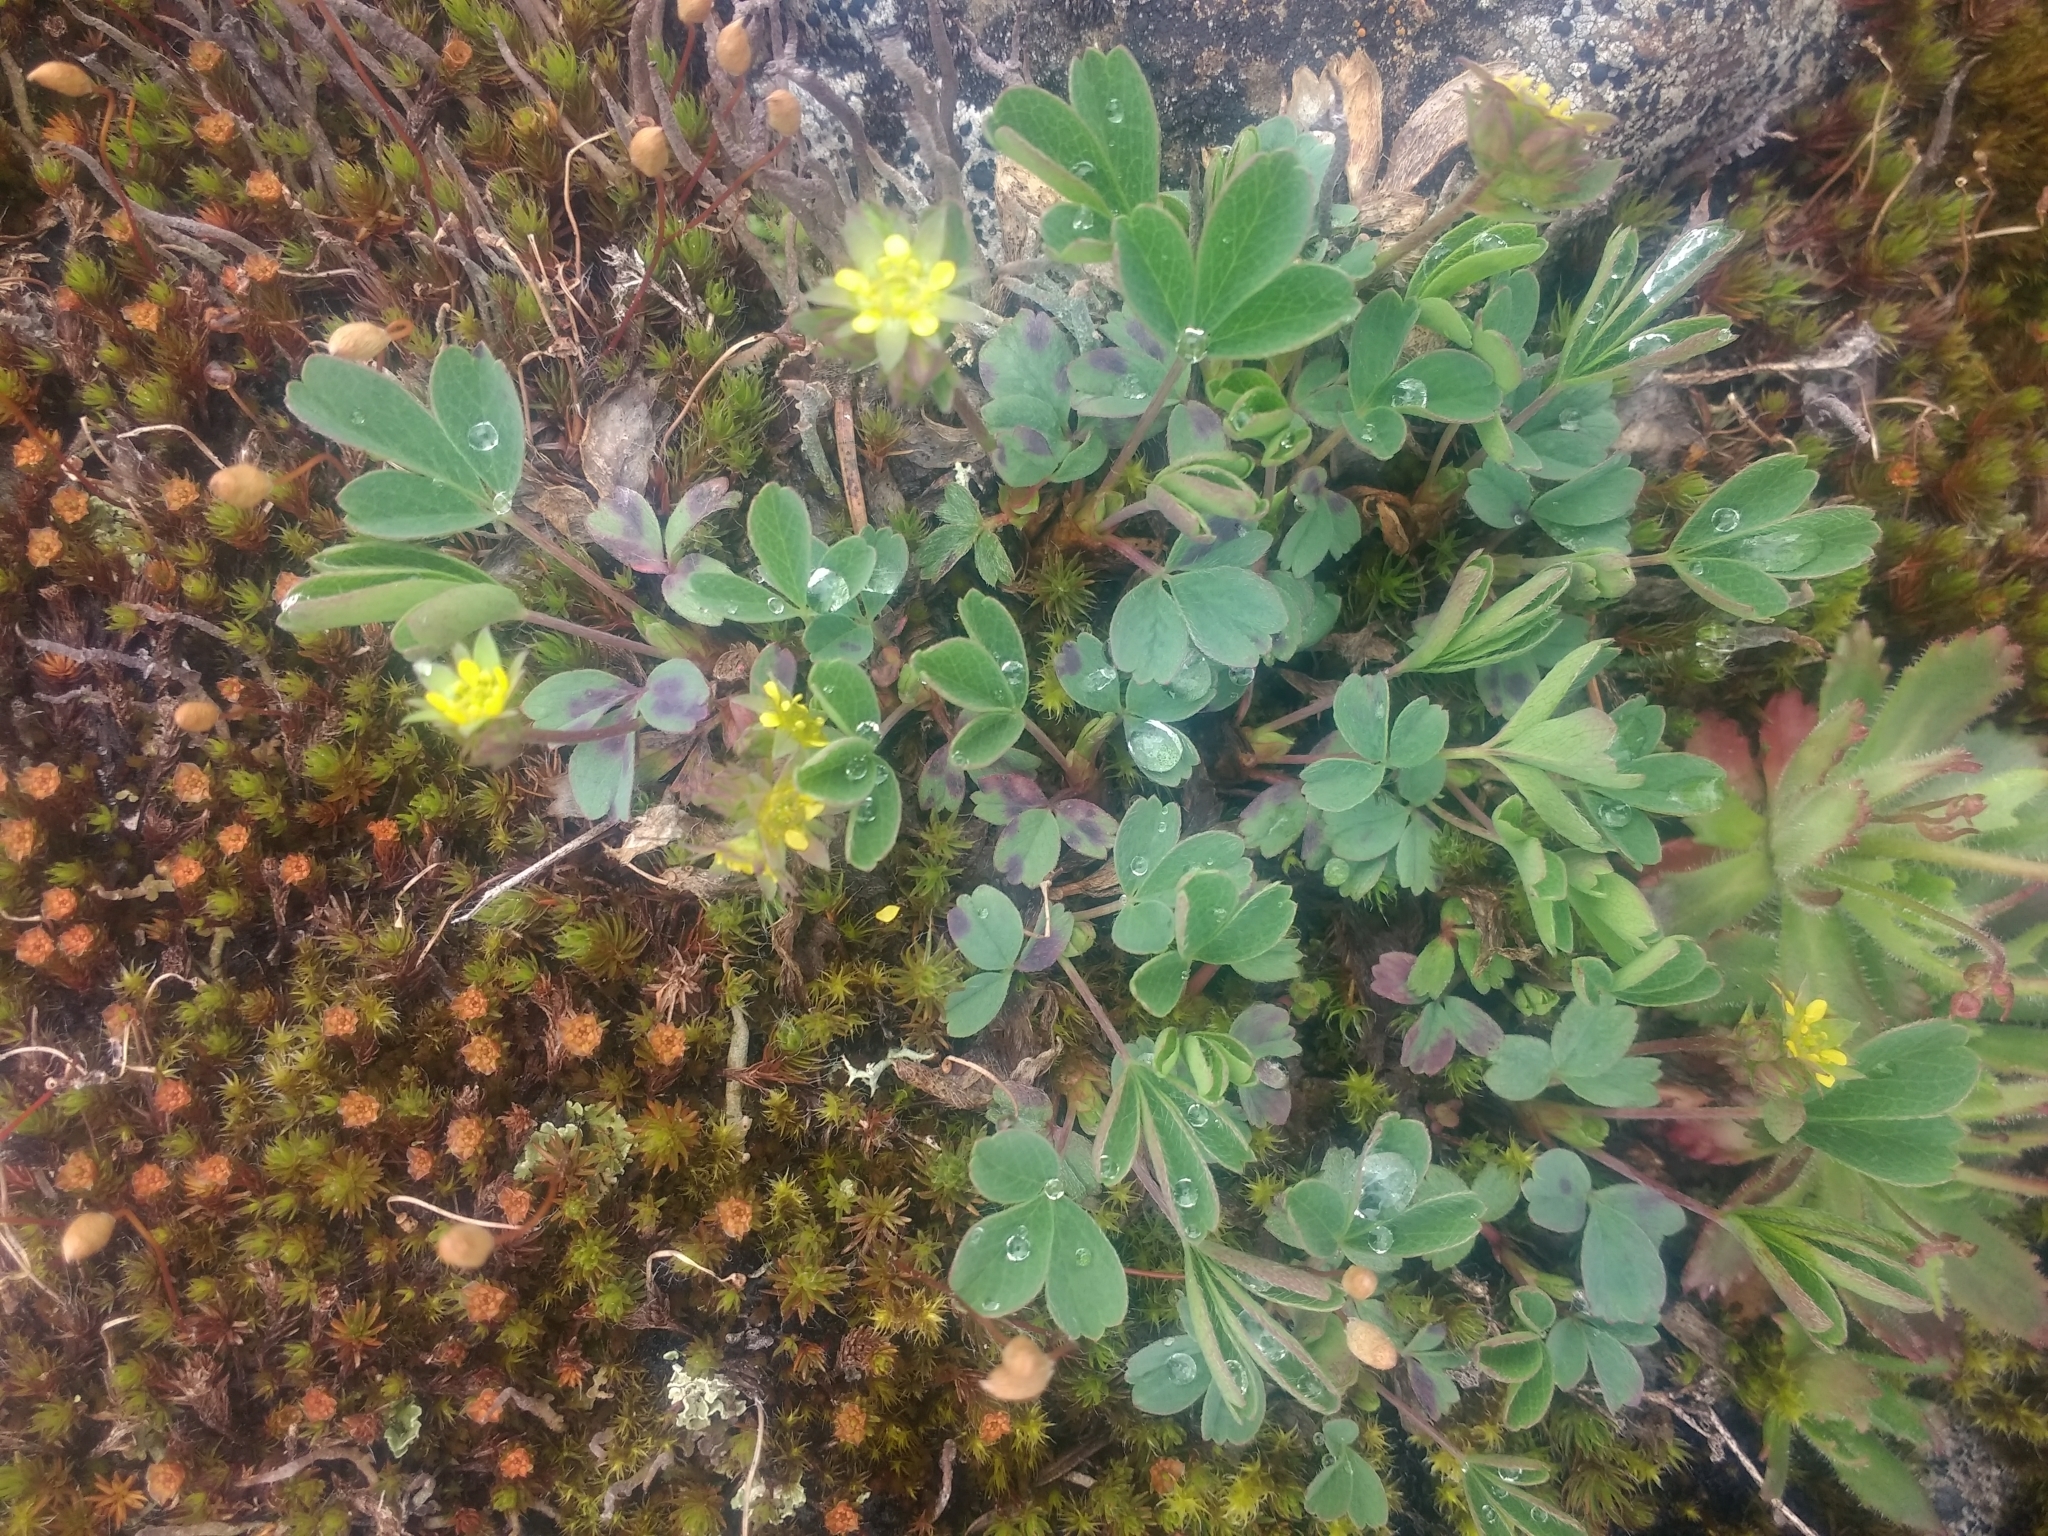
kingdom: Plantae
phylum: Tracheophyta
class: Magnoliopsida
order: Rosales
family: Rosaceae
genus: Sibbaldia
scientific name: Sibbaldia procumbens
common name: Creeping sibbaldia
